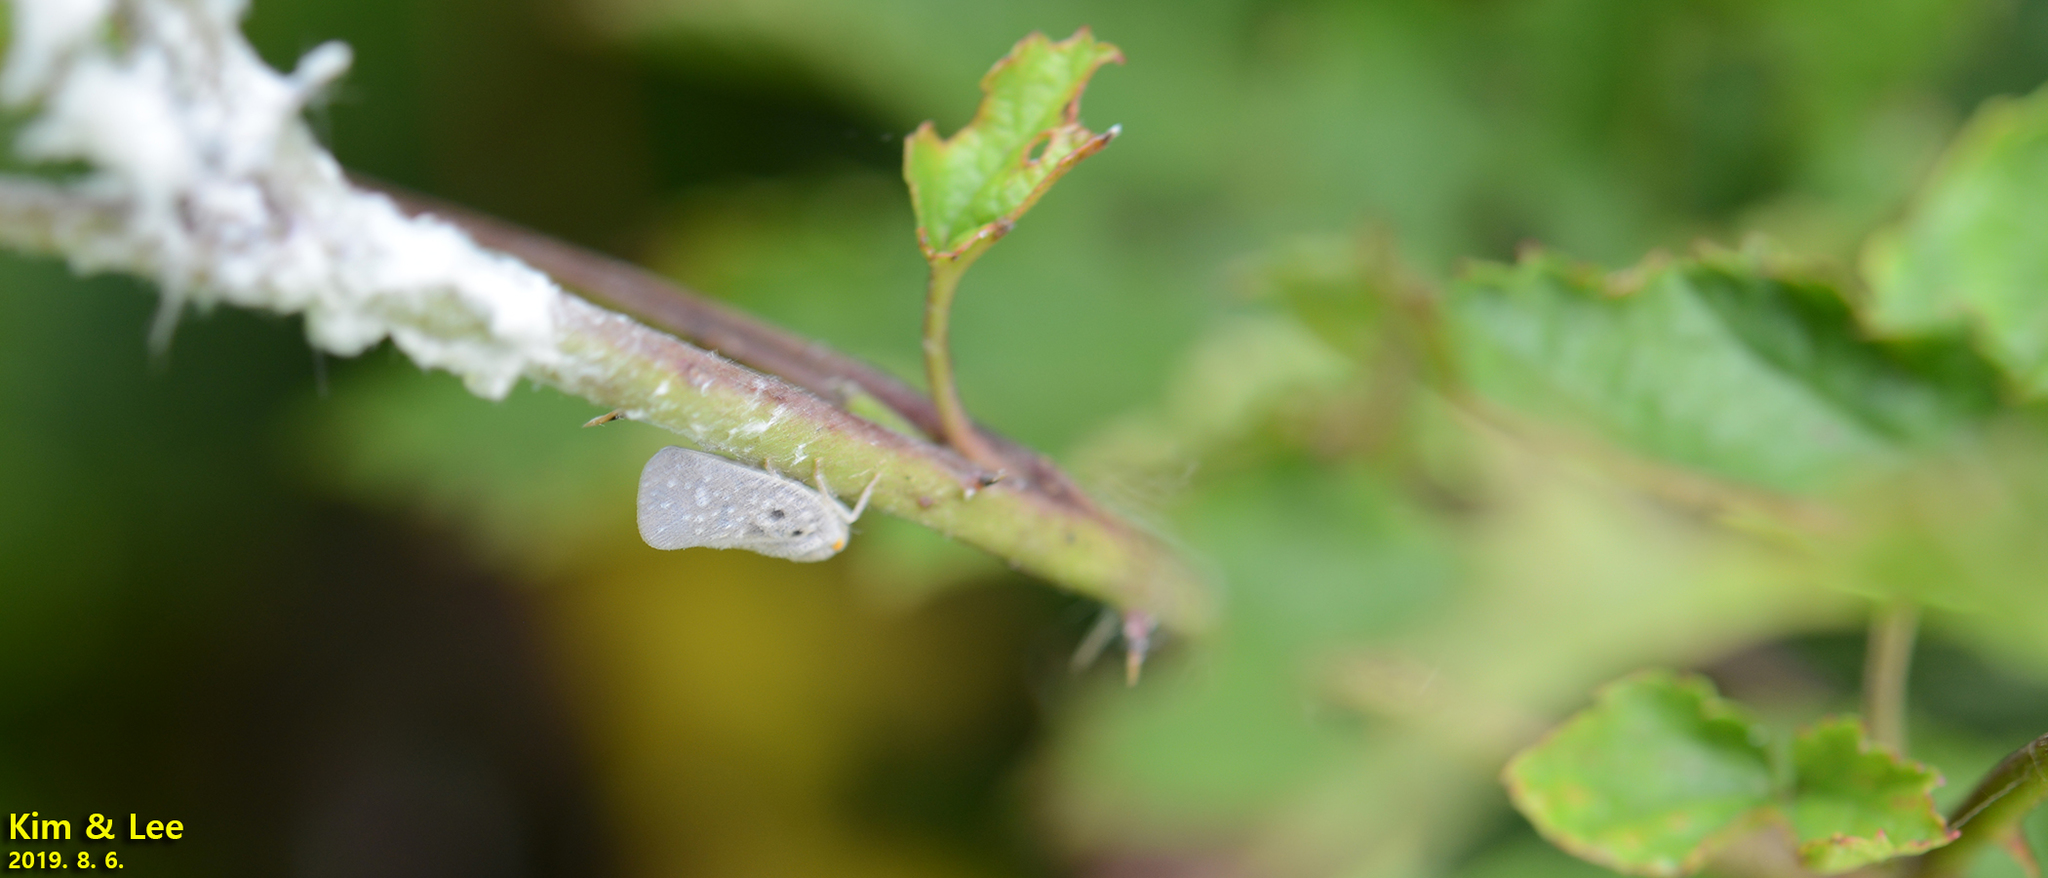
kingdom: Animalia
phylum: Arthropoda
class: Insecta
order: Hemiptera
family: Flatidae
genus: Metcalfa
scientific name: Metcalfa pruinosa
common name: Citrus flatid planthopper
